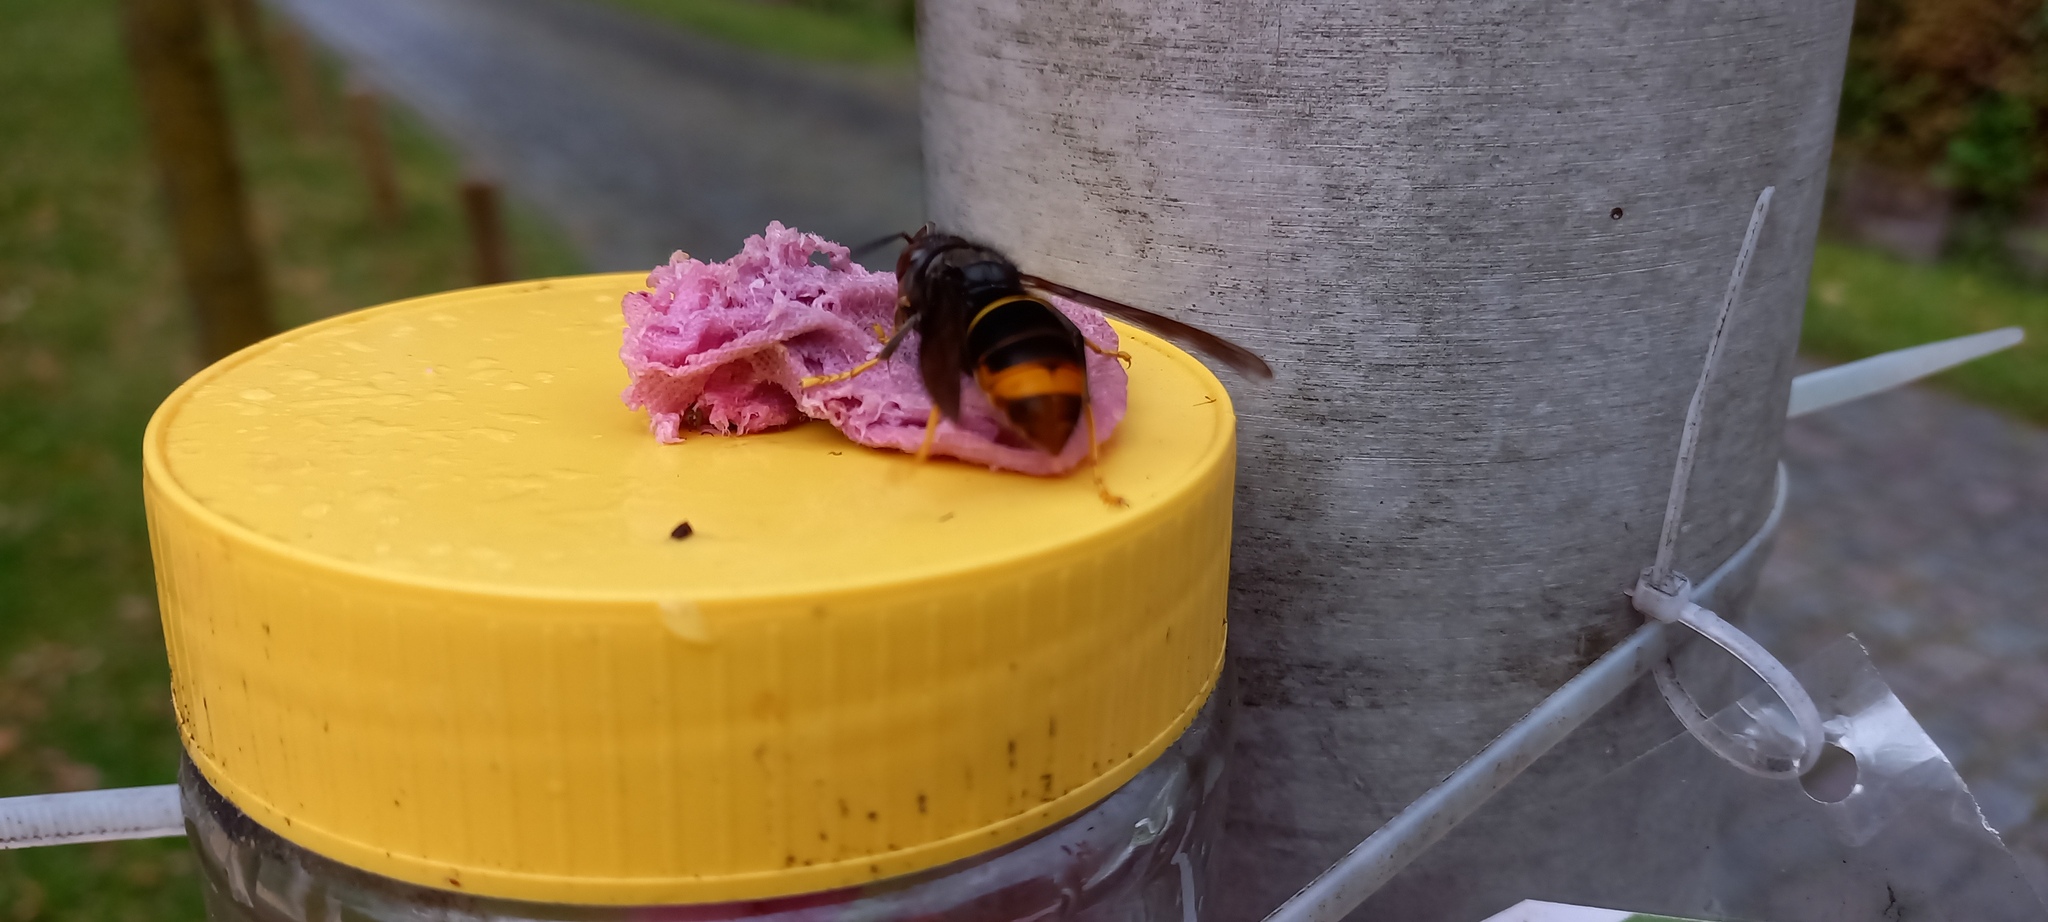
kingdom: Animalia
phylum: Arthropoda
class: Insecta
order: Hymenoptera
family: Vespidae
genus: Vespa
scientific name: Vespa velutina
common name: Asian hornet
